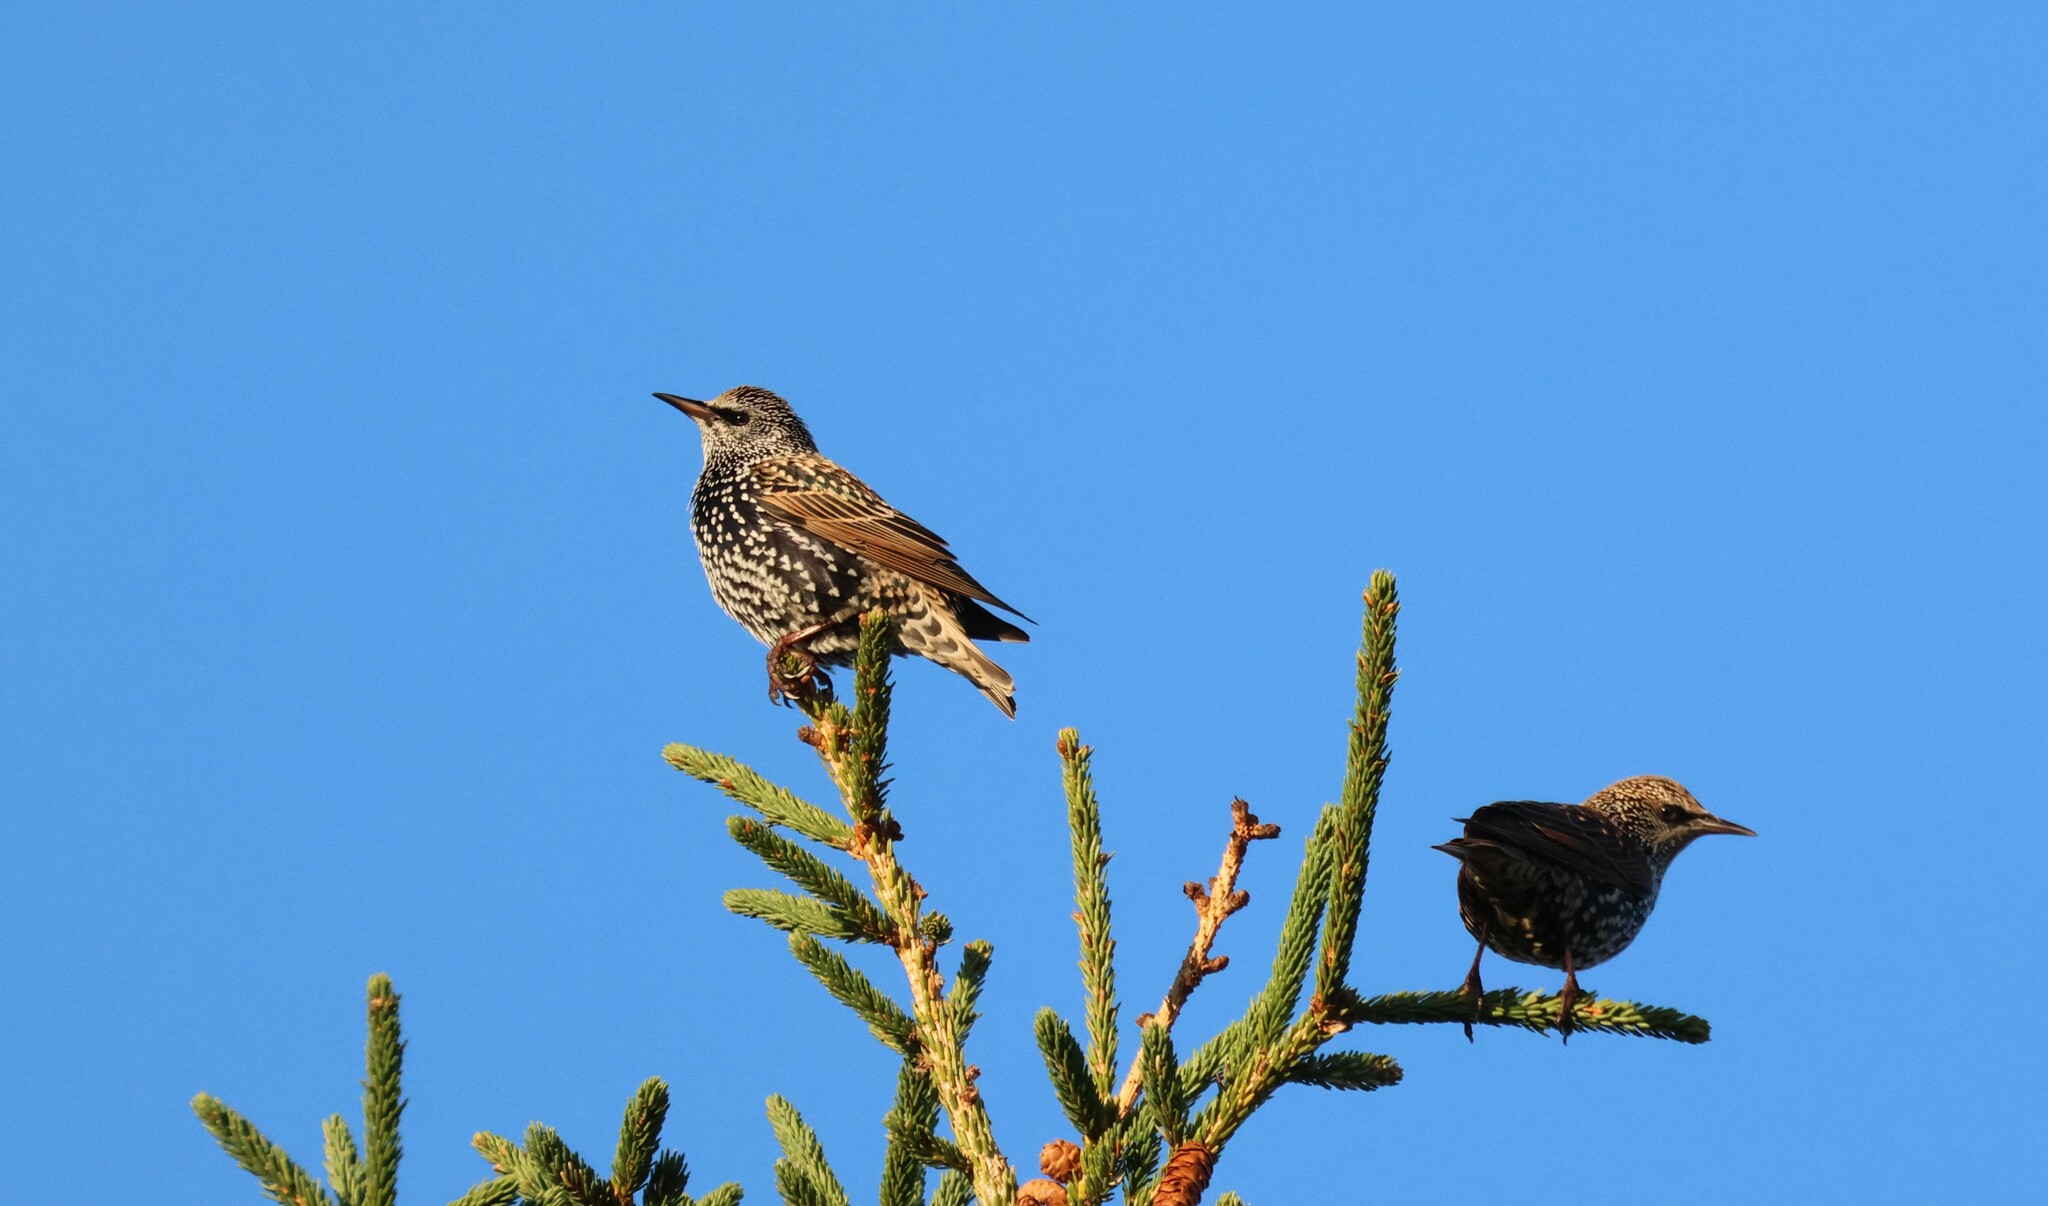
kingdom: Animalia
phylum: Chordata
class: Aves
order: Passeriformes
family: Sturnidae
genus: Sturnus
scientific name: Sturnus vulgaris
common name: Common starling
